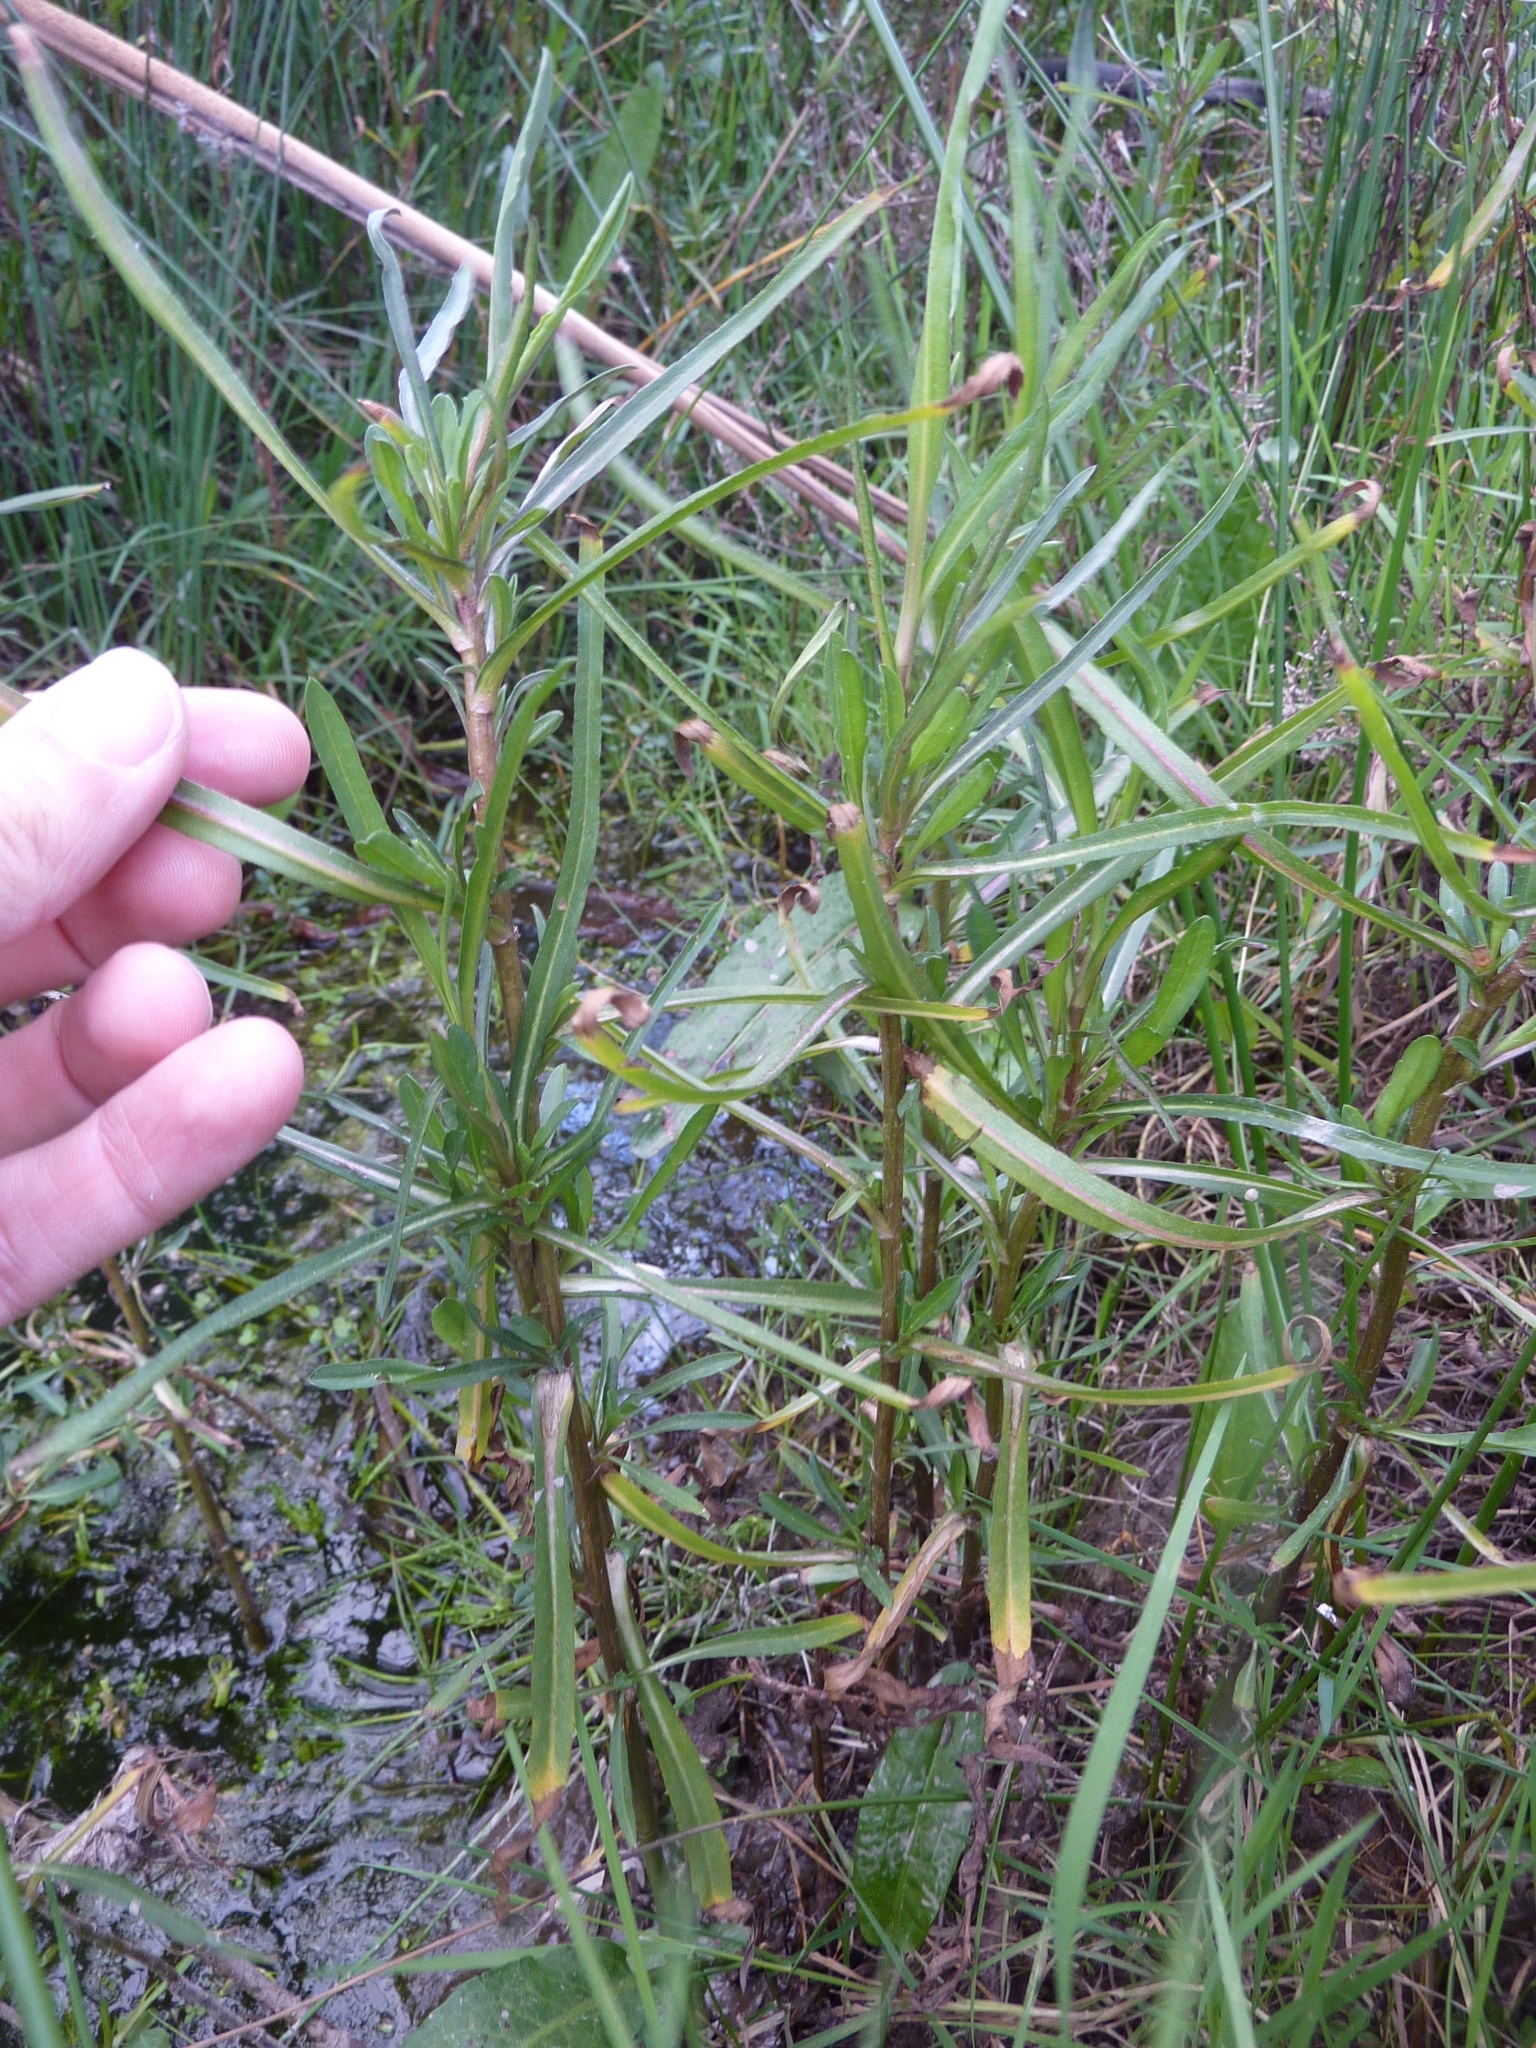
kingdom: Plantae
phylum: Tracheophyta
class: Magnoliopsida
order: Asterales
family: Asteraceae
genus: Symphyotrichum
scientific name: Symphyotrichum subulatum
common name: Annual saltmarsh aster
